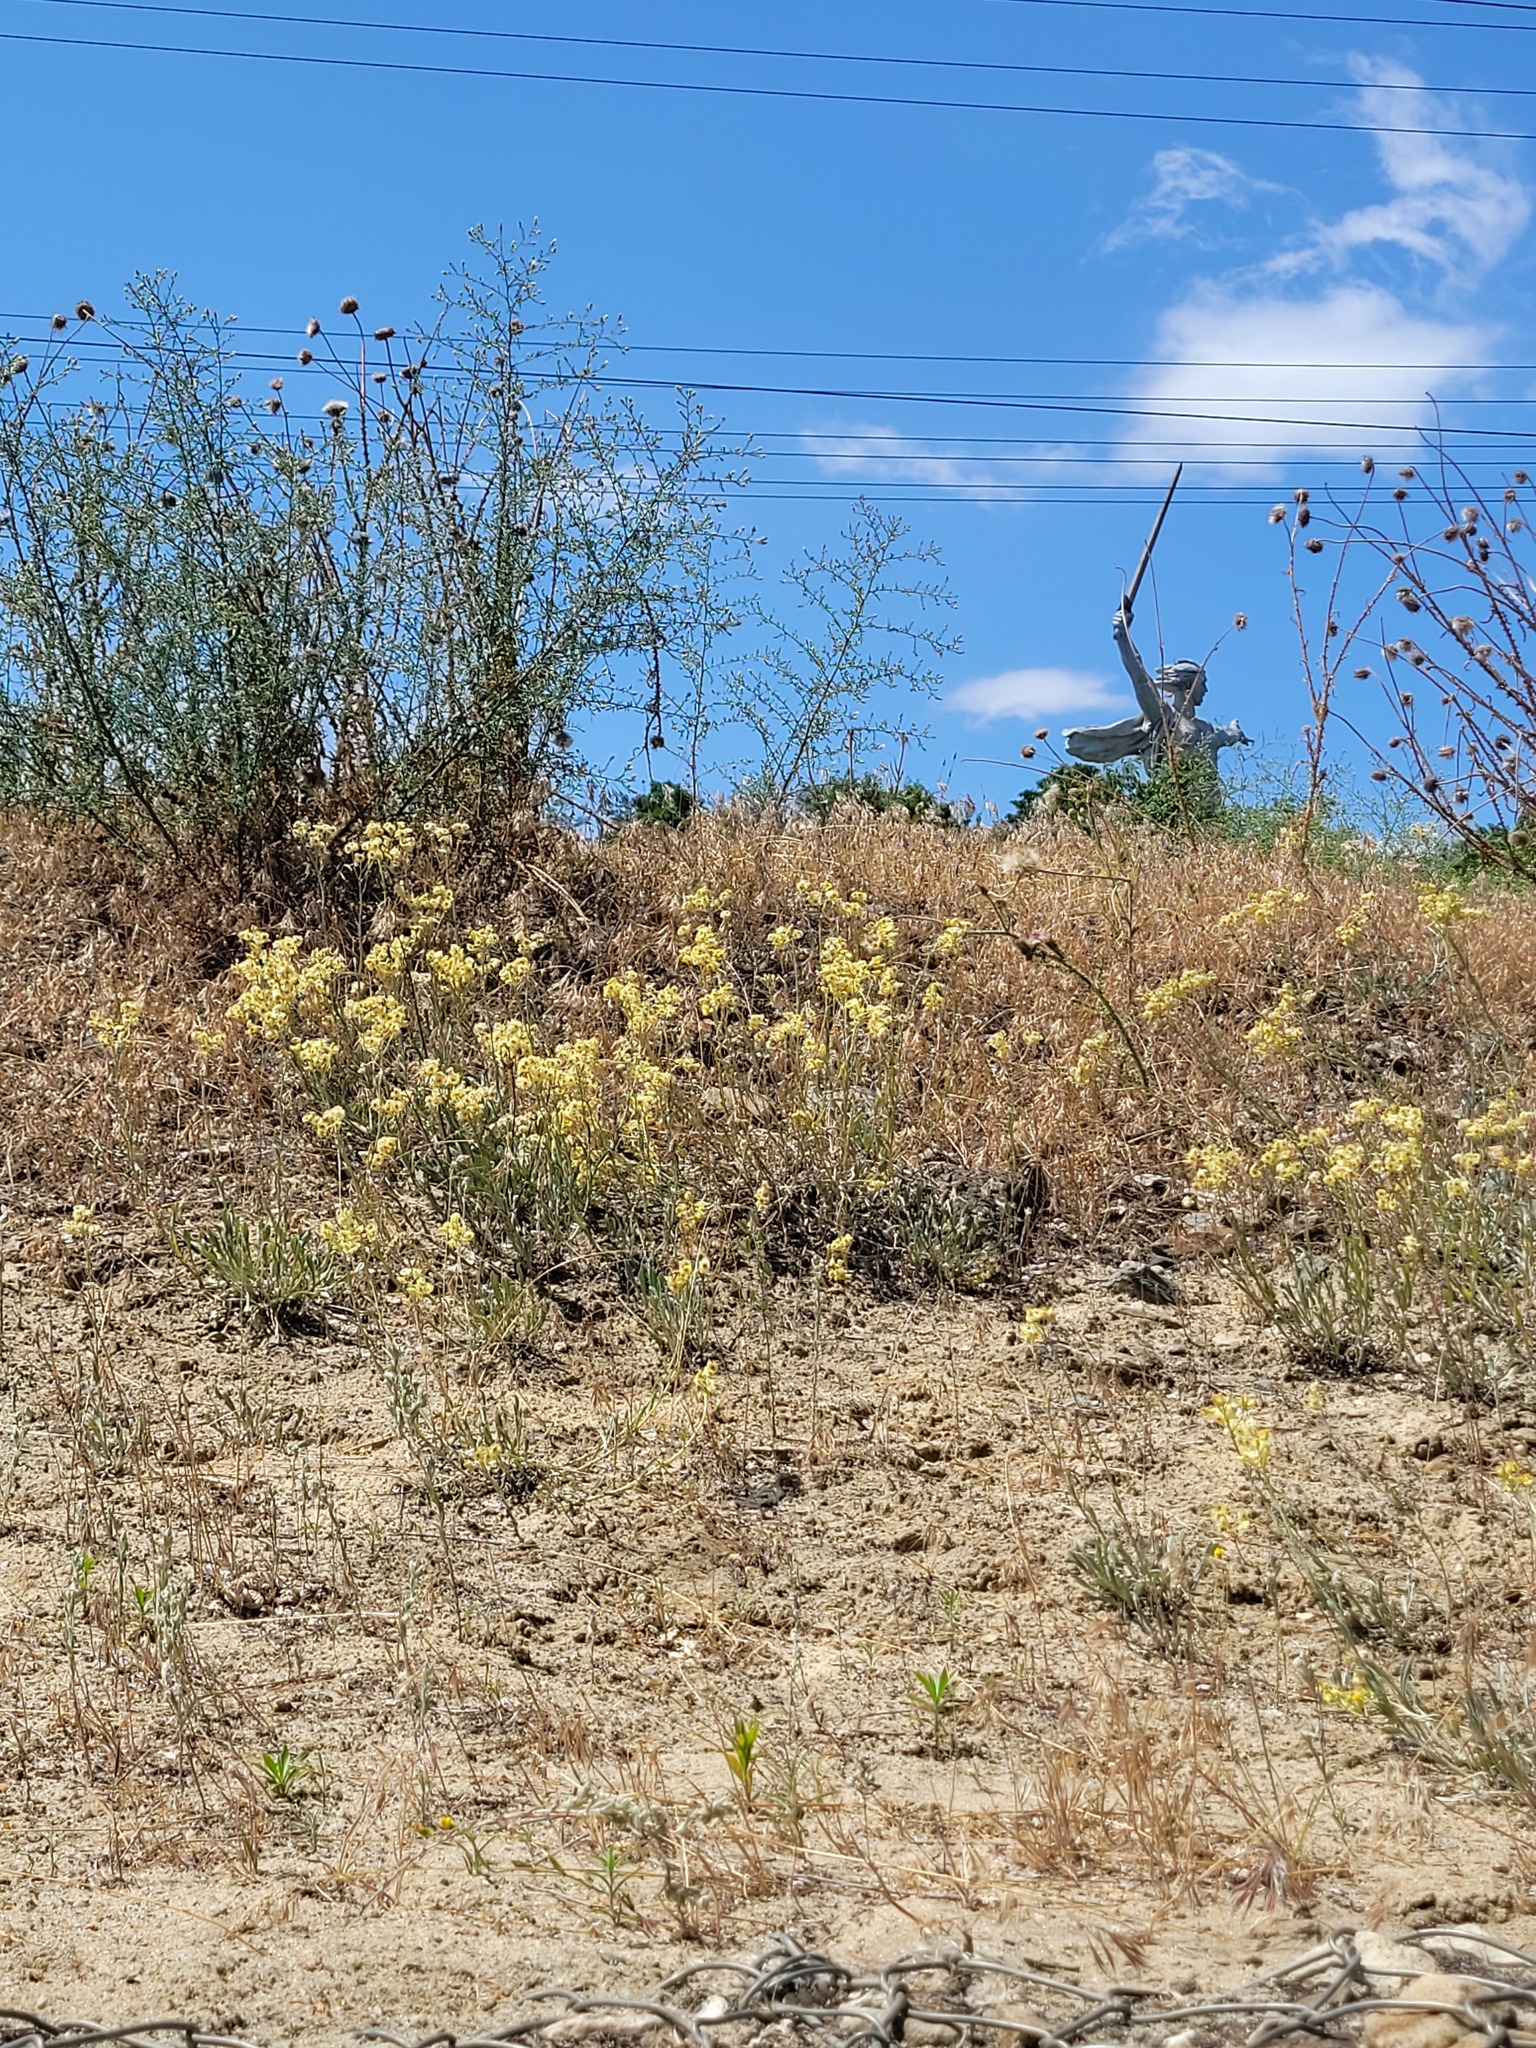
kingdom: Plantae
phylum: Tracheophyta
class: Magnoliopsida
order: Asterales
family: Asteraceae
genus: Helichrysum
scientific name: Helichrysum arenarium
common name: Strawflower
